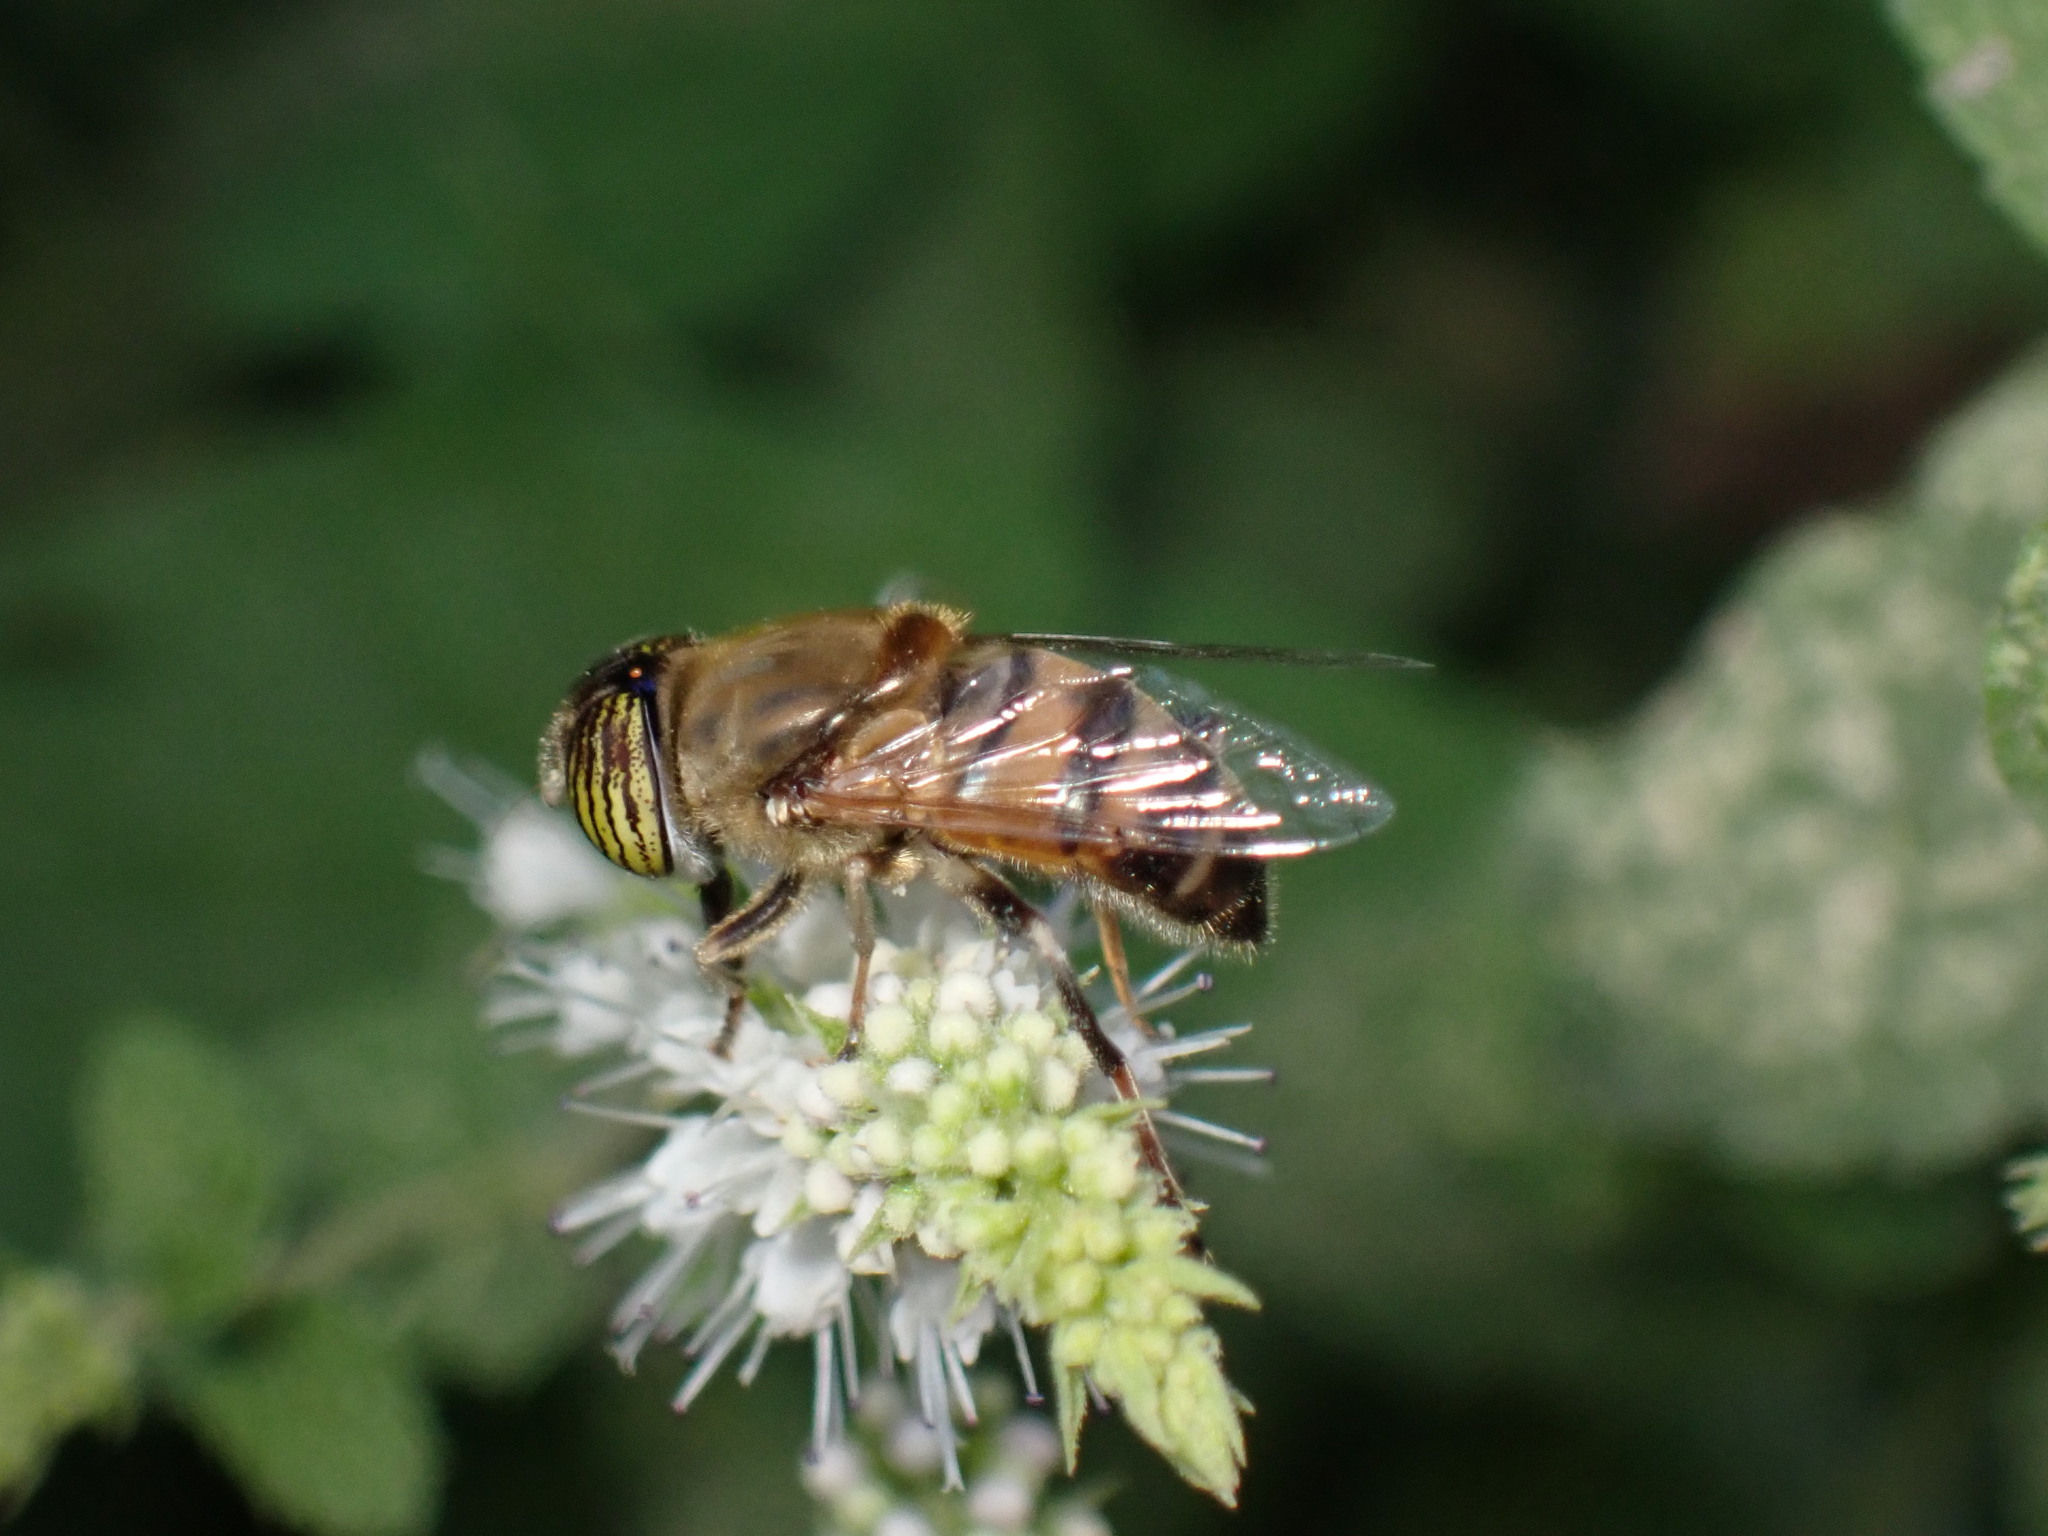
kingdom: Animalia
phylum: Arthropoda
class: Insecta
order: Diptera
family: Syrphidae
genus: Eristalinus
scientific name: Eristalinus taeniops
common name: Syrphid fly
